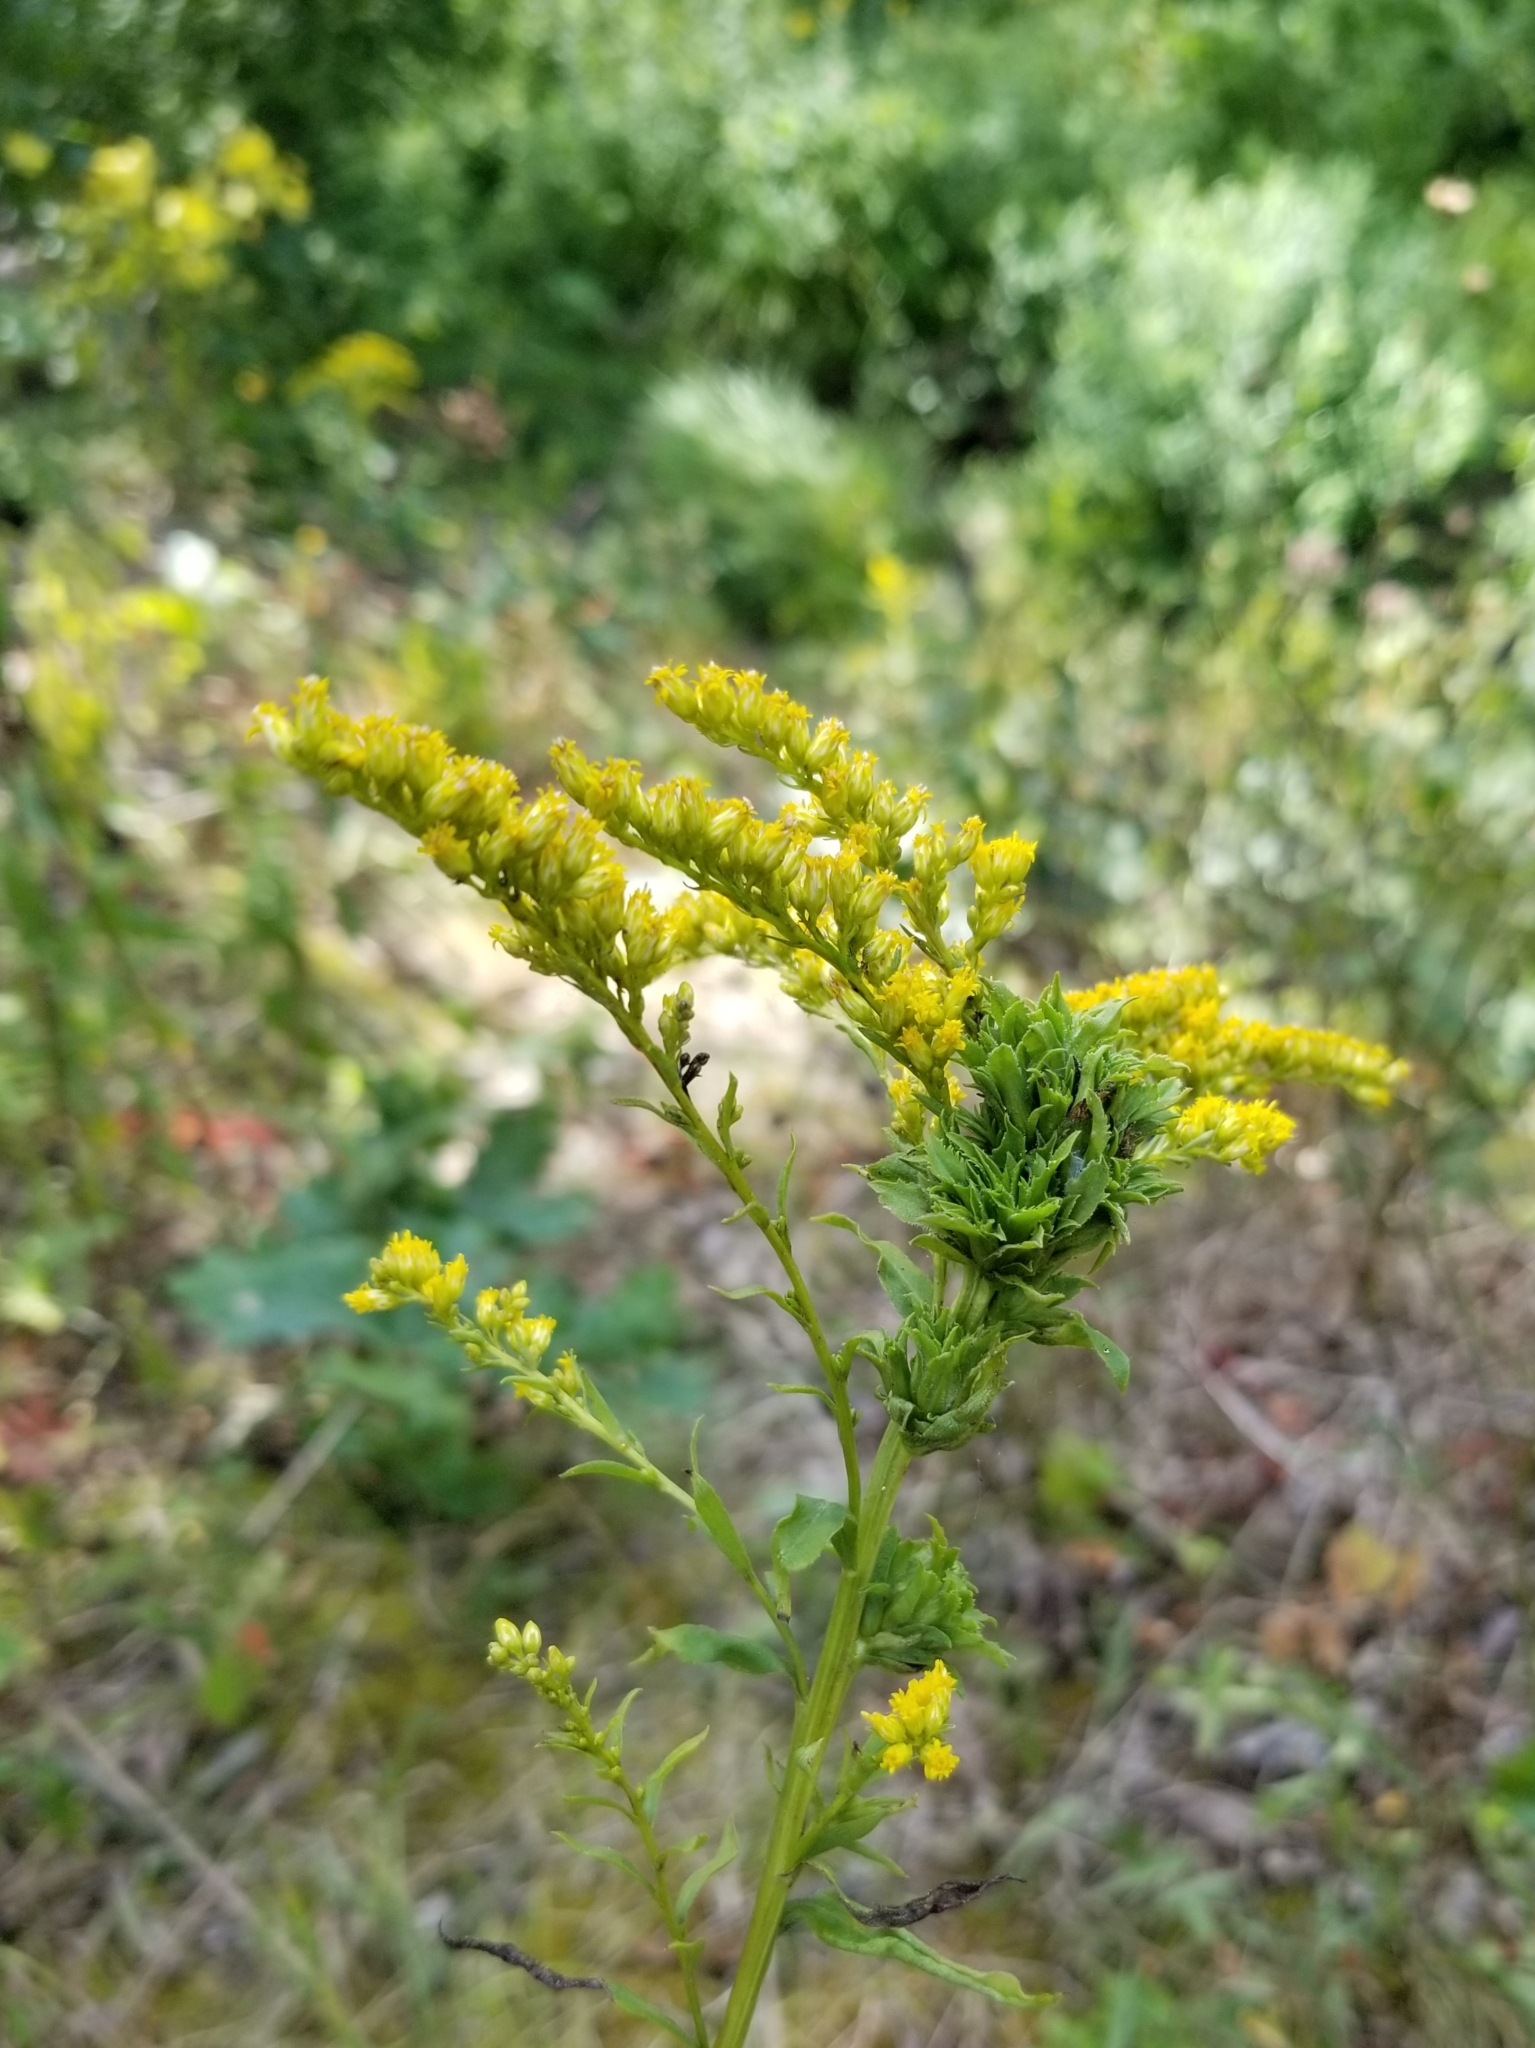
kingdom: Animalia
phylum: Arthropoda
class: Insecta
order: Diptera
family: Cecidomyiidae
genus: Asphondylia
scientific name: Asphondylia monacha
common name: Nun midge
